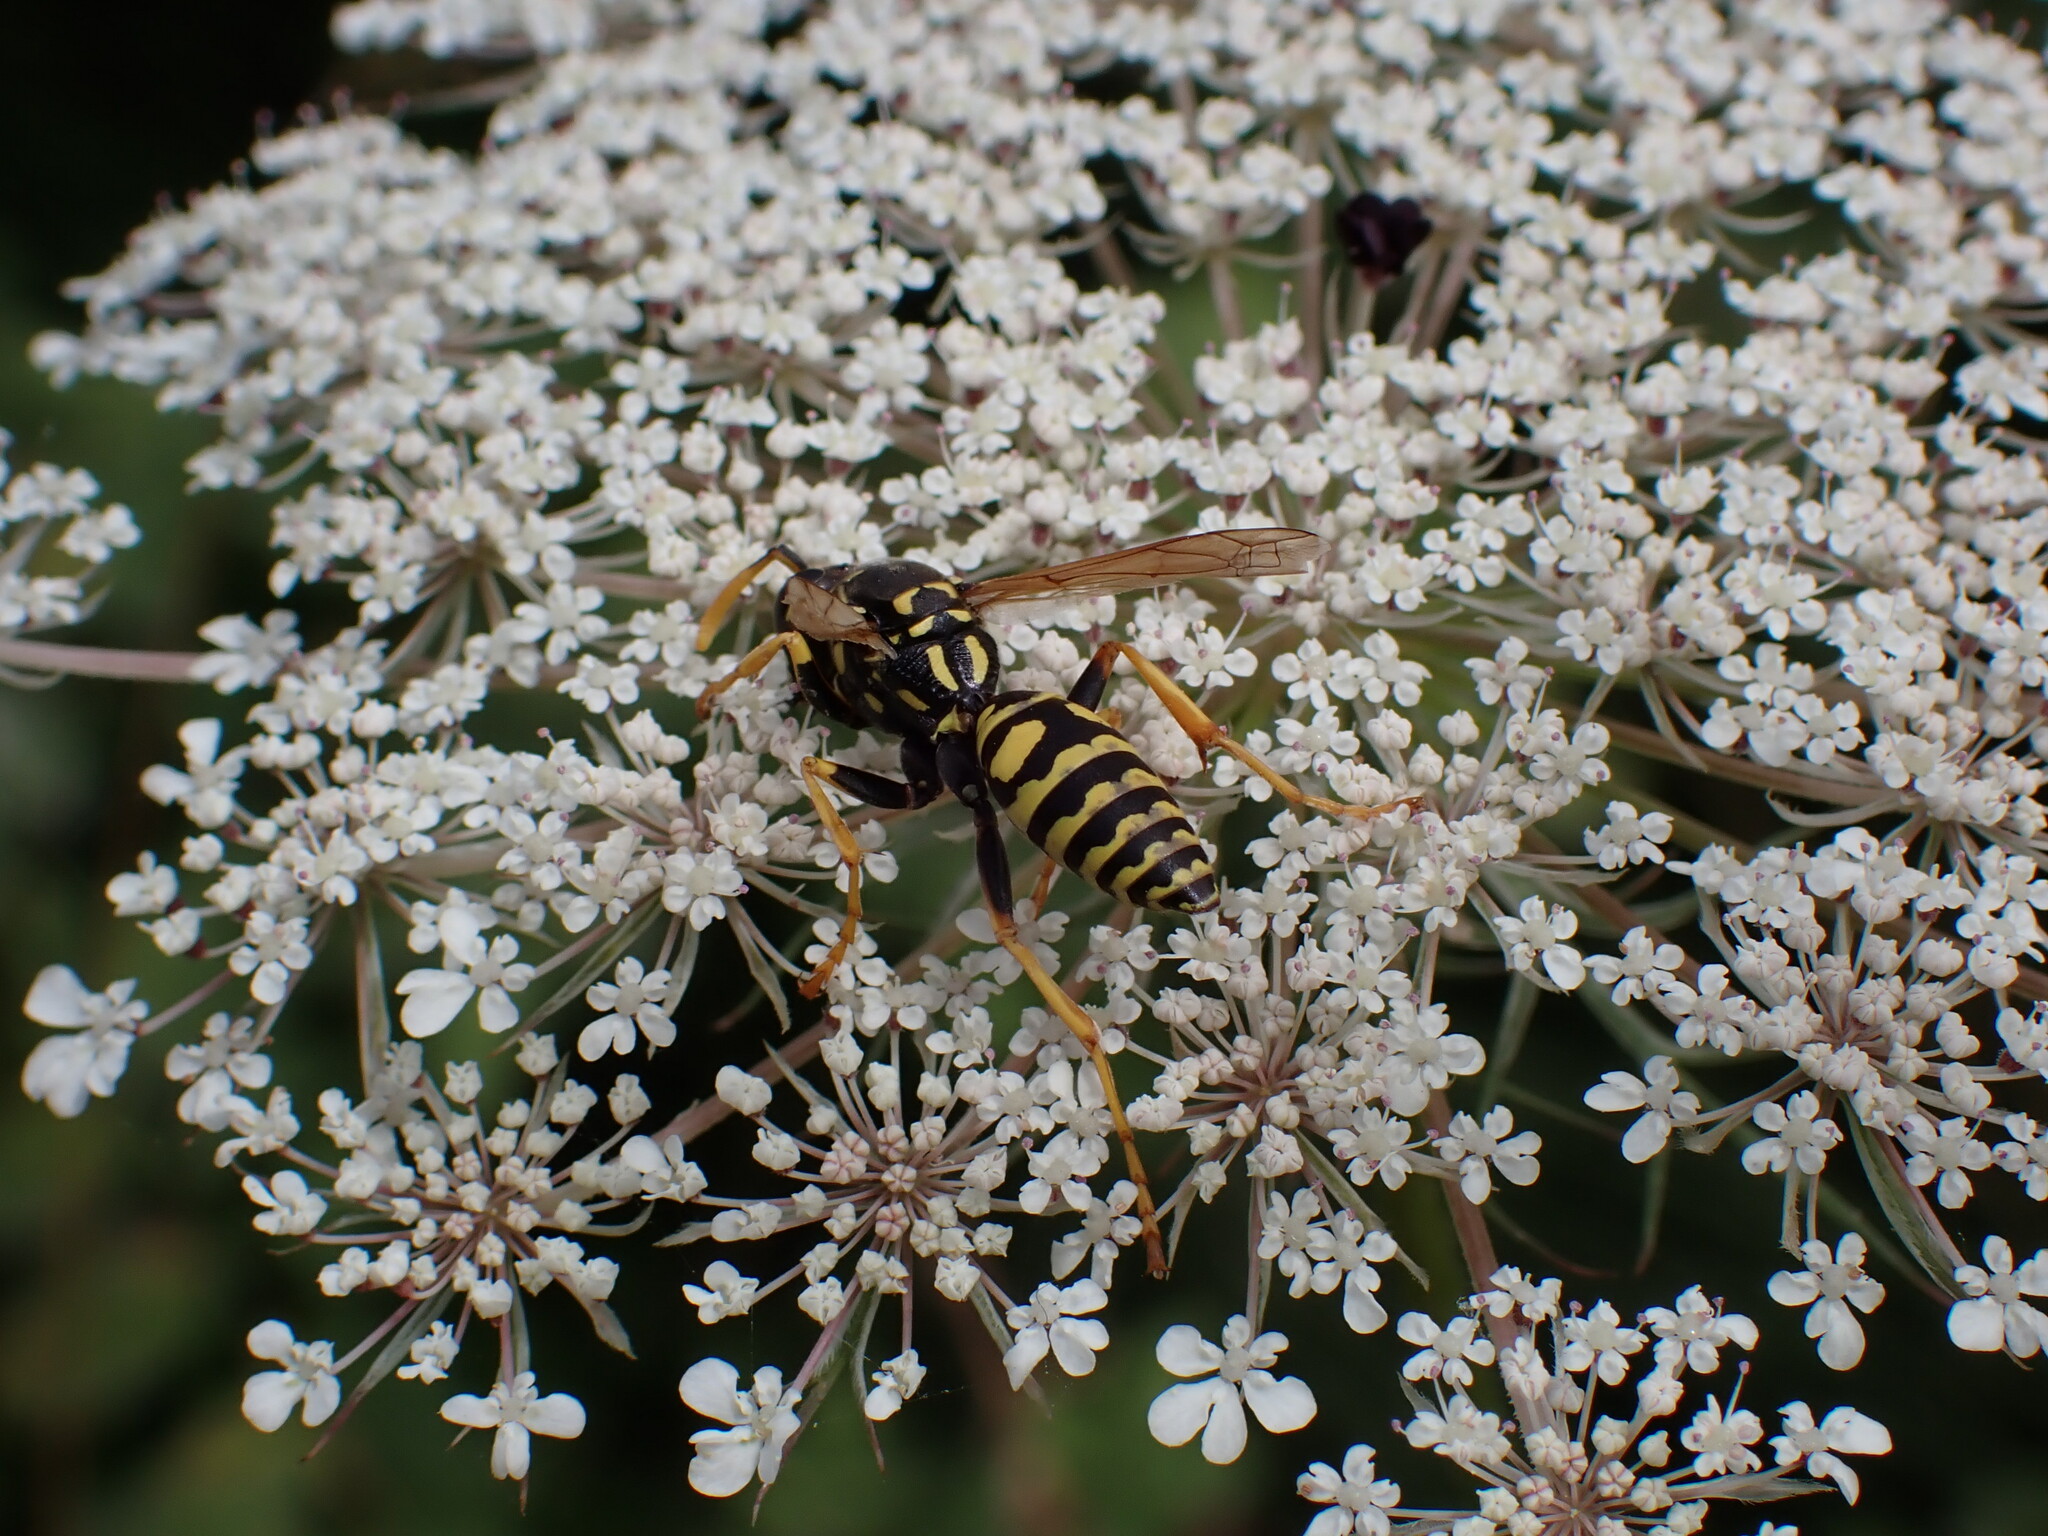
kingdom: Animalia
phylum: Arthropoda
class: Insecta
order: Hymenoptera
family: Eumenidae
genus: Polistes
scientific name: Polistes dominula
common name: Paper wasp
